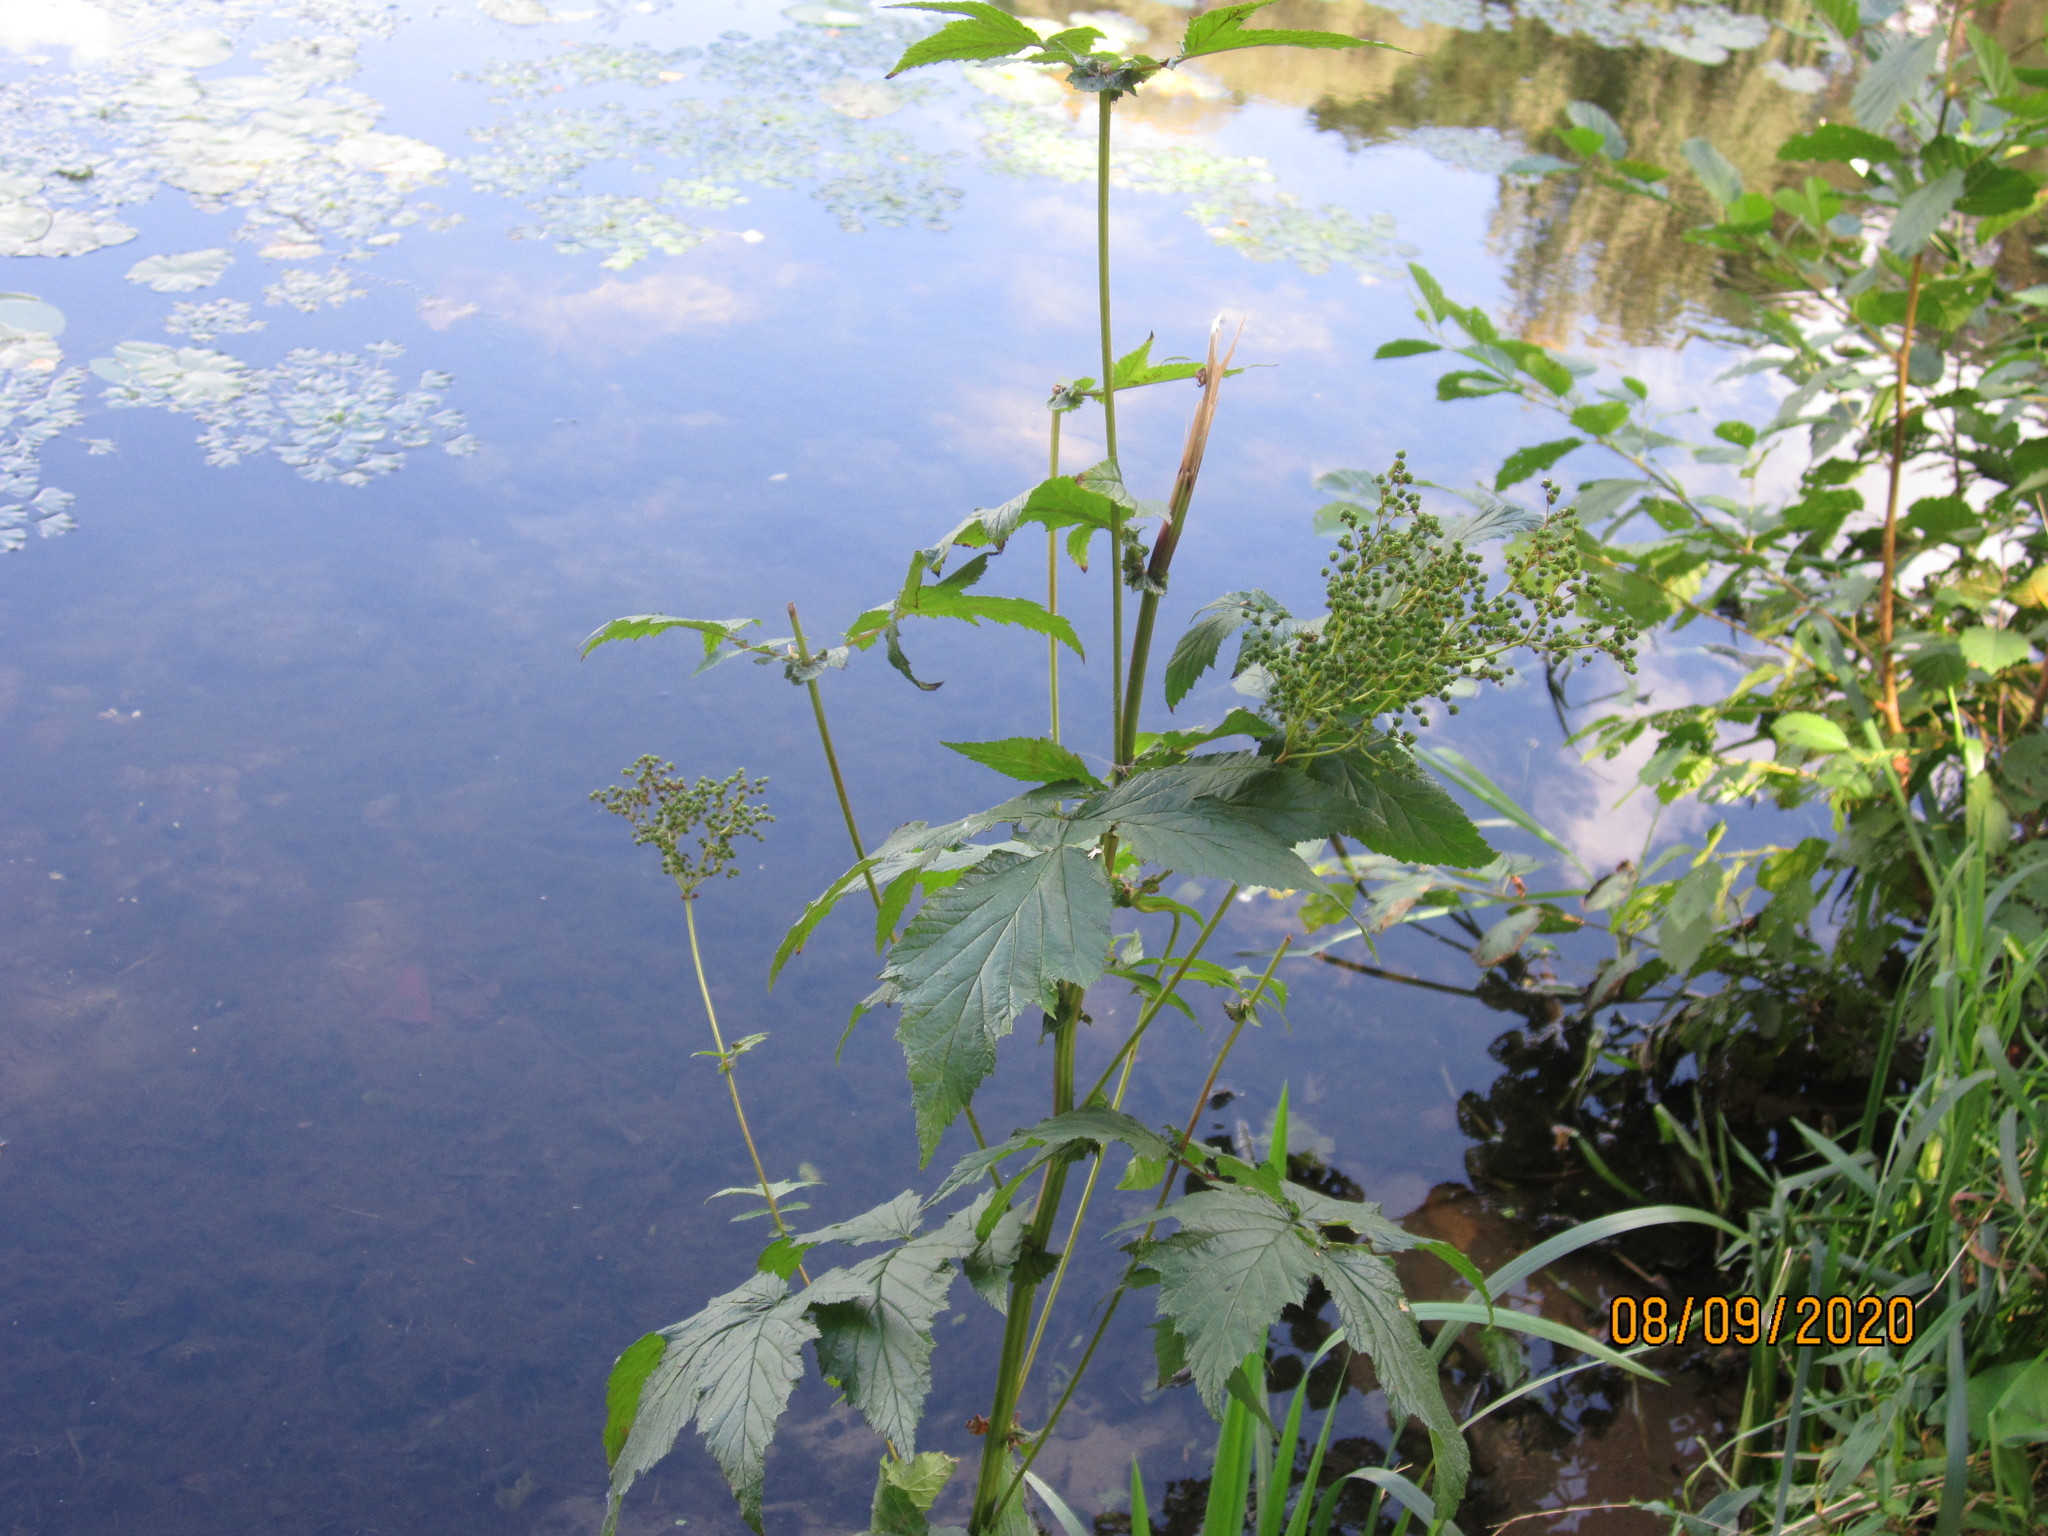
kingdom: Plantae
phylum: Tracheophyta
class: Magnoliopsida
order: Rosales
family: Rosaceae
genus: Filipendula
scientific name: Filipendula ulmaria
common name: Meadowsweet
